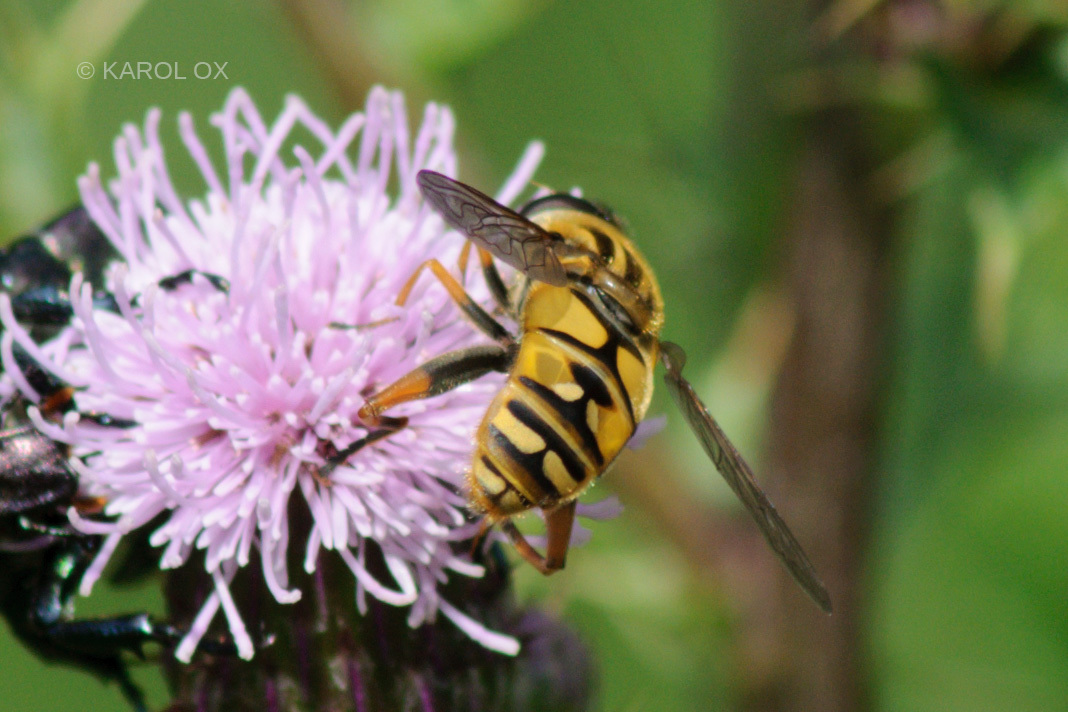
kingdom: Animalia
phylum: Arthropoda
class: Insecta
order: Diptera
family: Syrphidae
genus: Helophilus
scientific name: Helophilus pendulus
